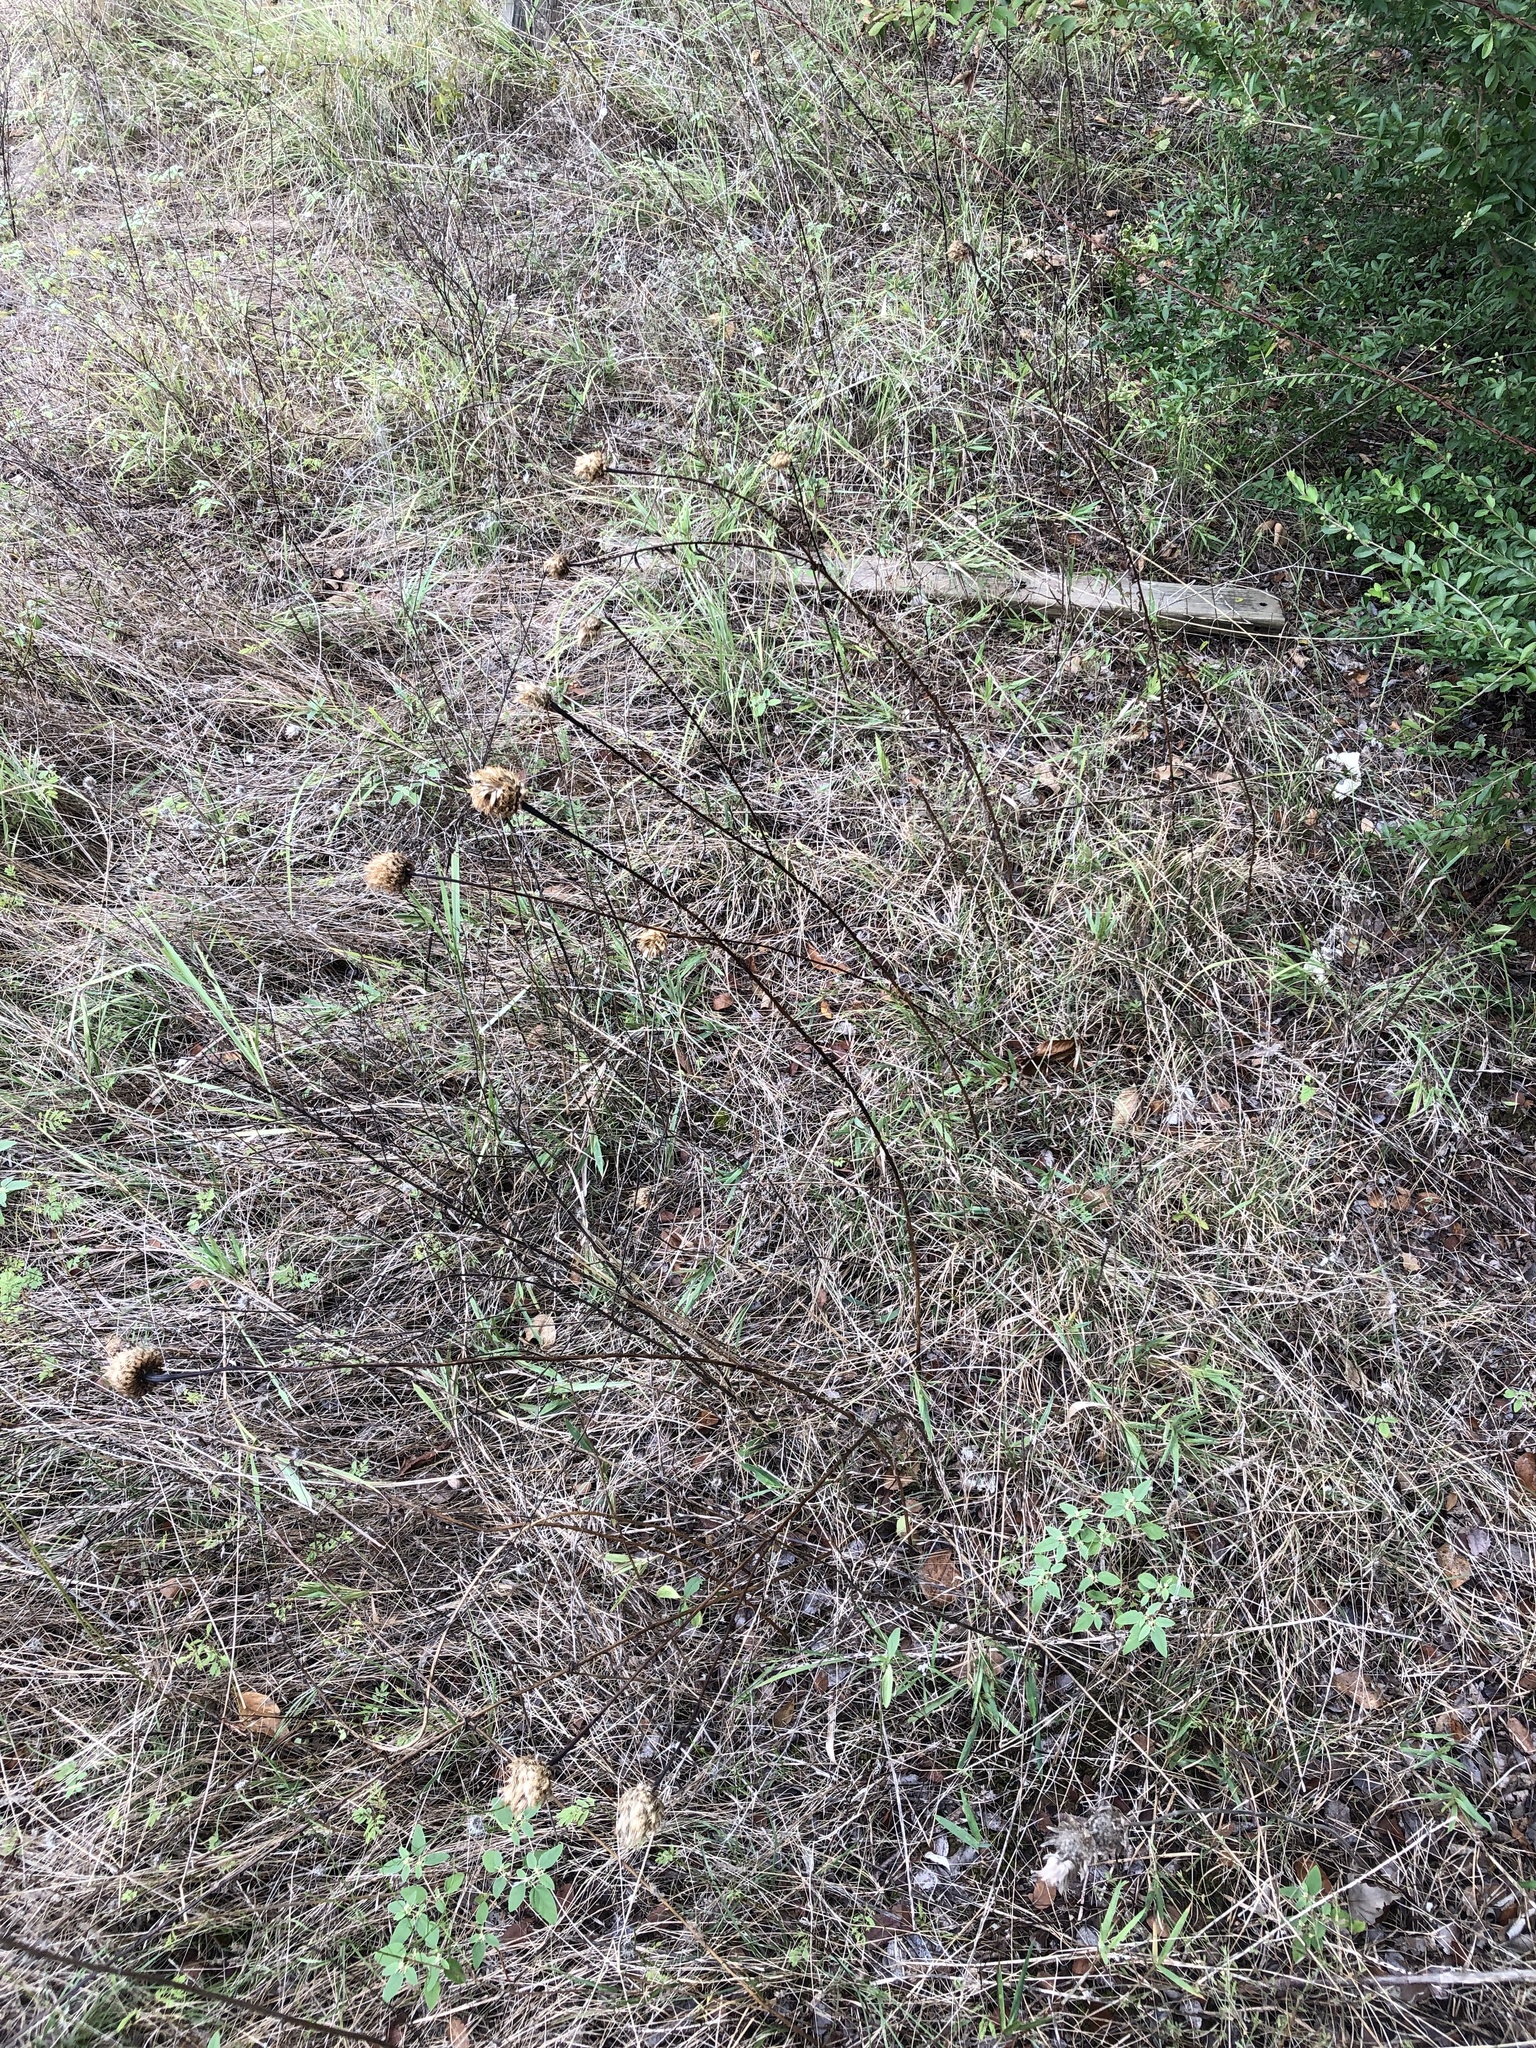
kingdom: Plantae
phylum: Tracheophyta
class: Magnoliopsida
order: Asterales
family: Asteraceae
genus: Plectocephalus
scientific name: Plectocephalus americanus
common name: American basket-flower
